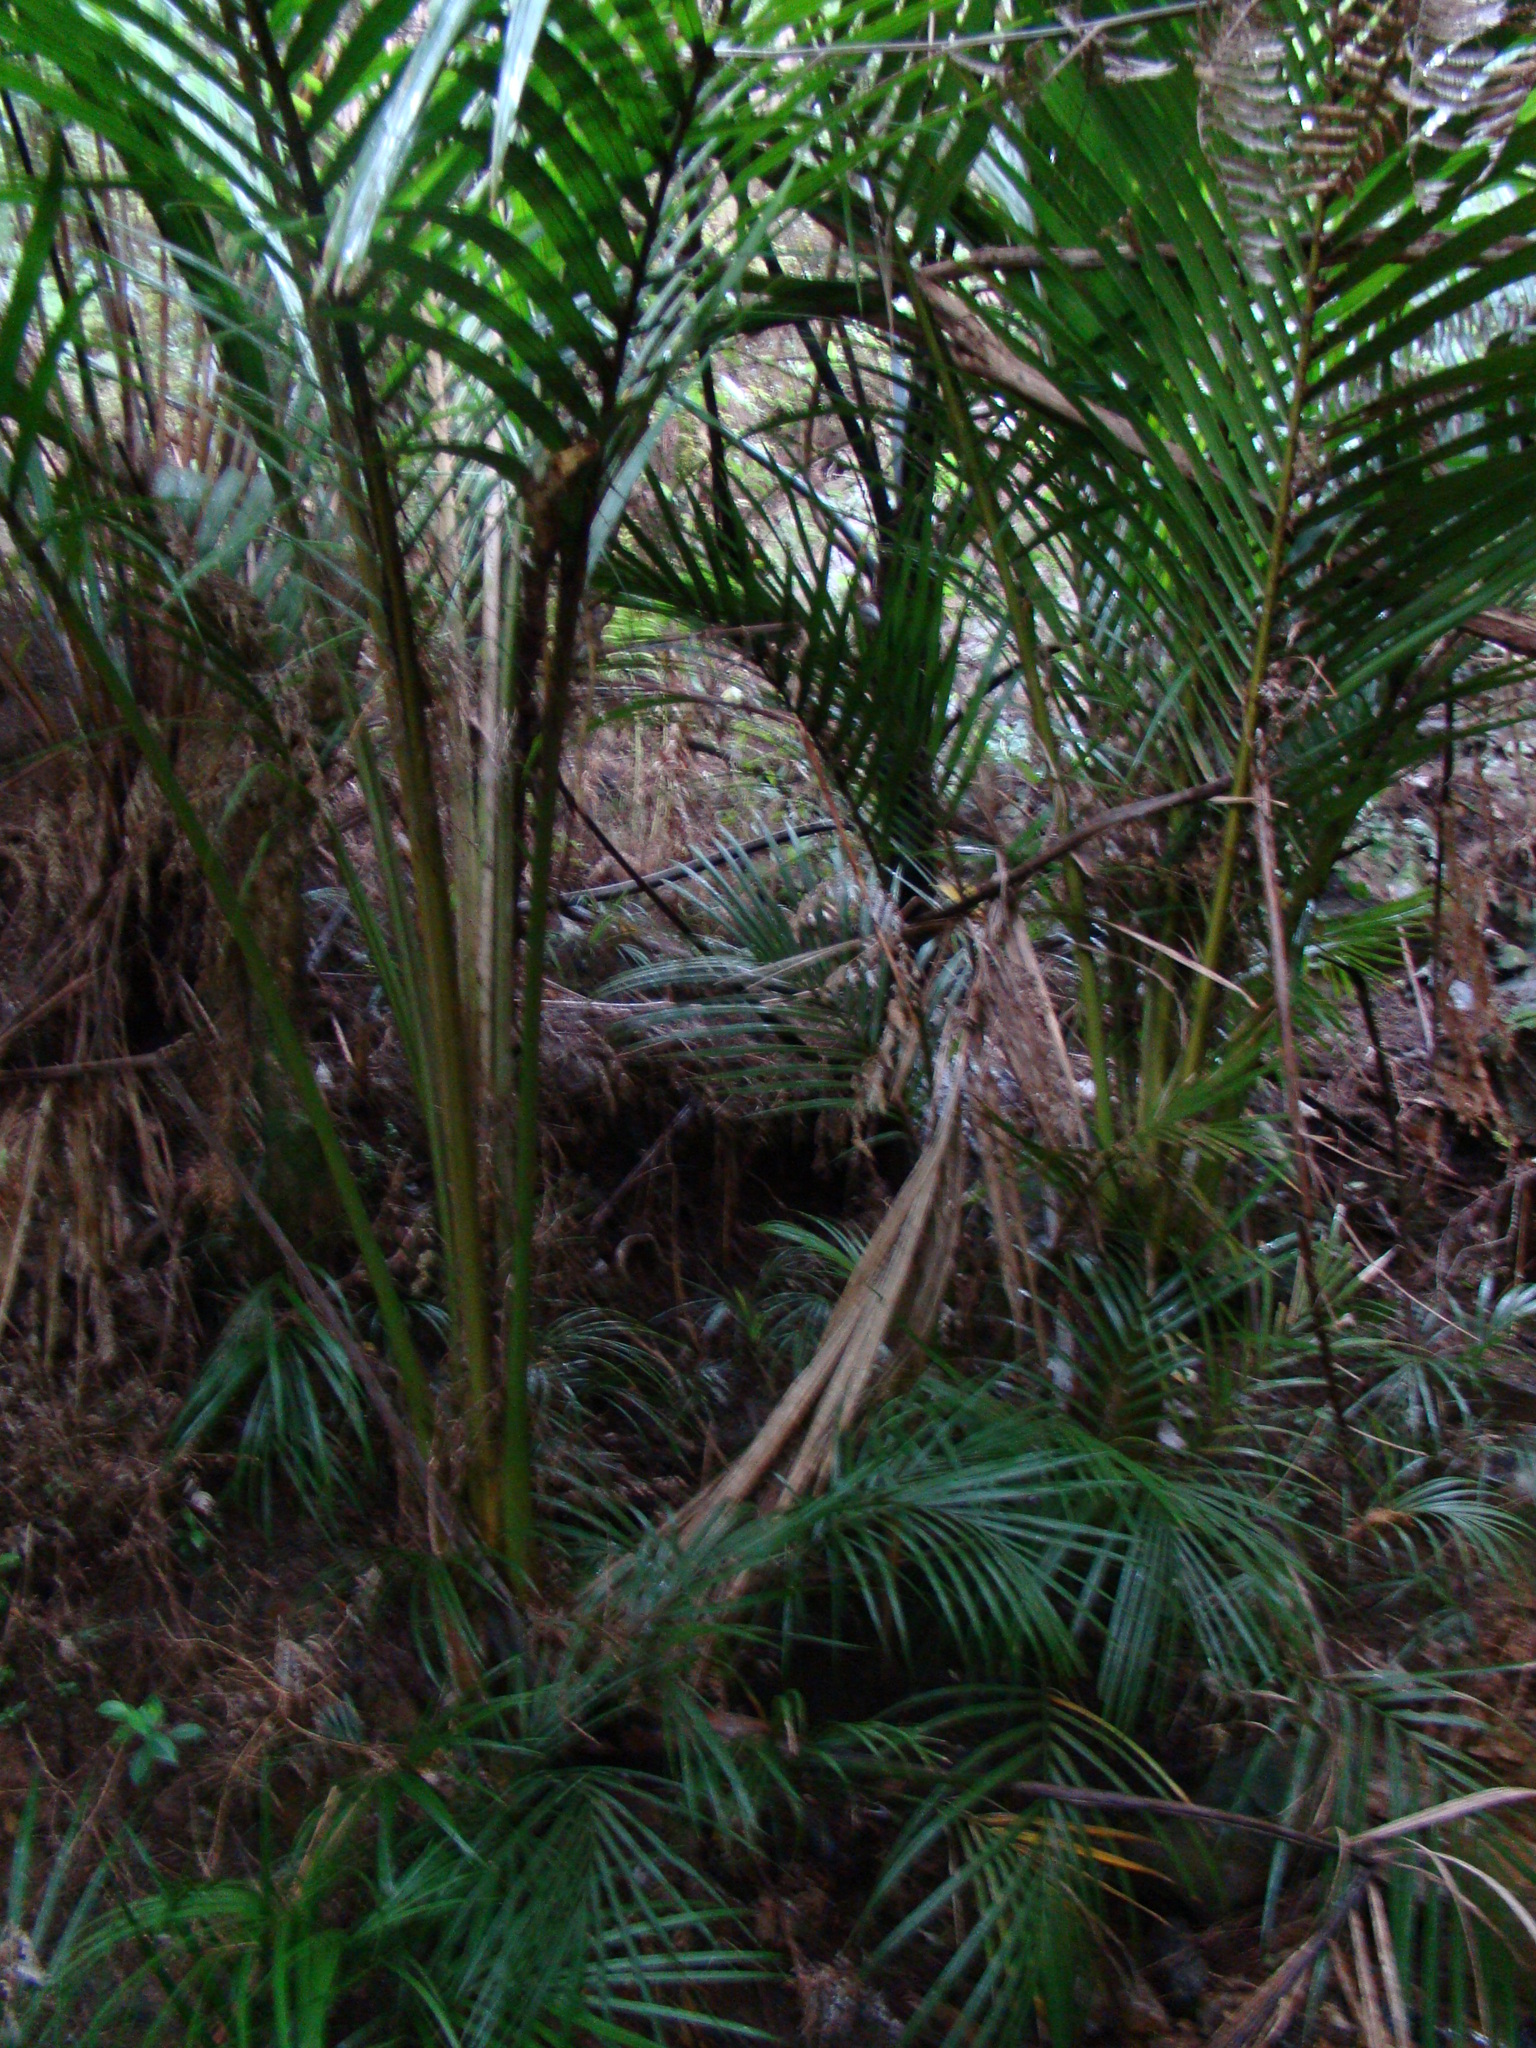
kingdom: Plantae
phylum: Tracheophyta
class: Liliopsida
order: Arecales
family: Arecaceae
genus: Rhopalostylis
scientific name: Rhopalostylis sapida
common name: Feather-duster palm
